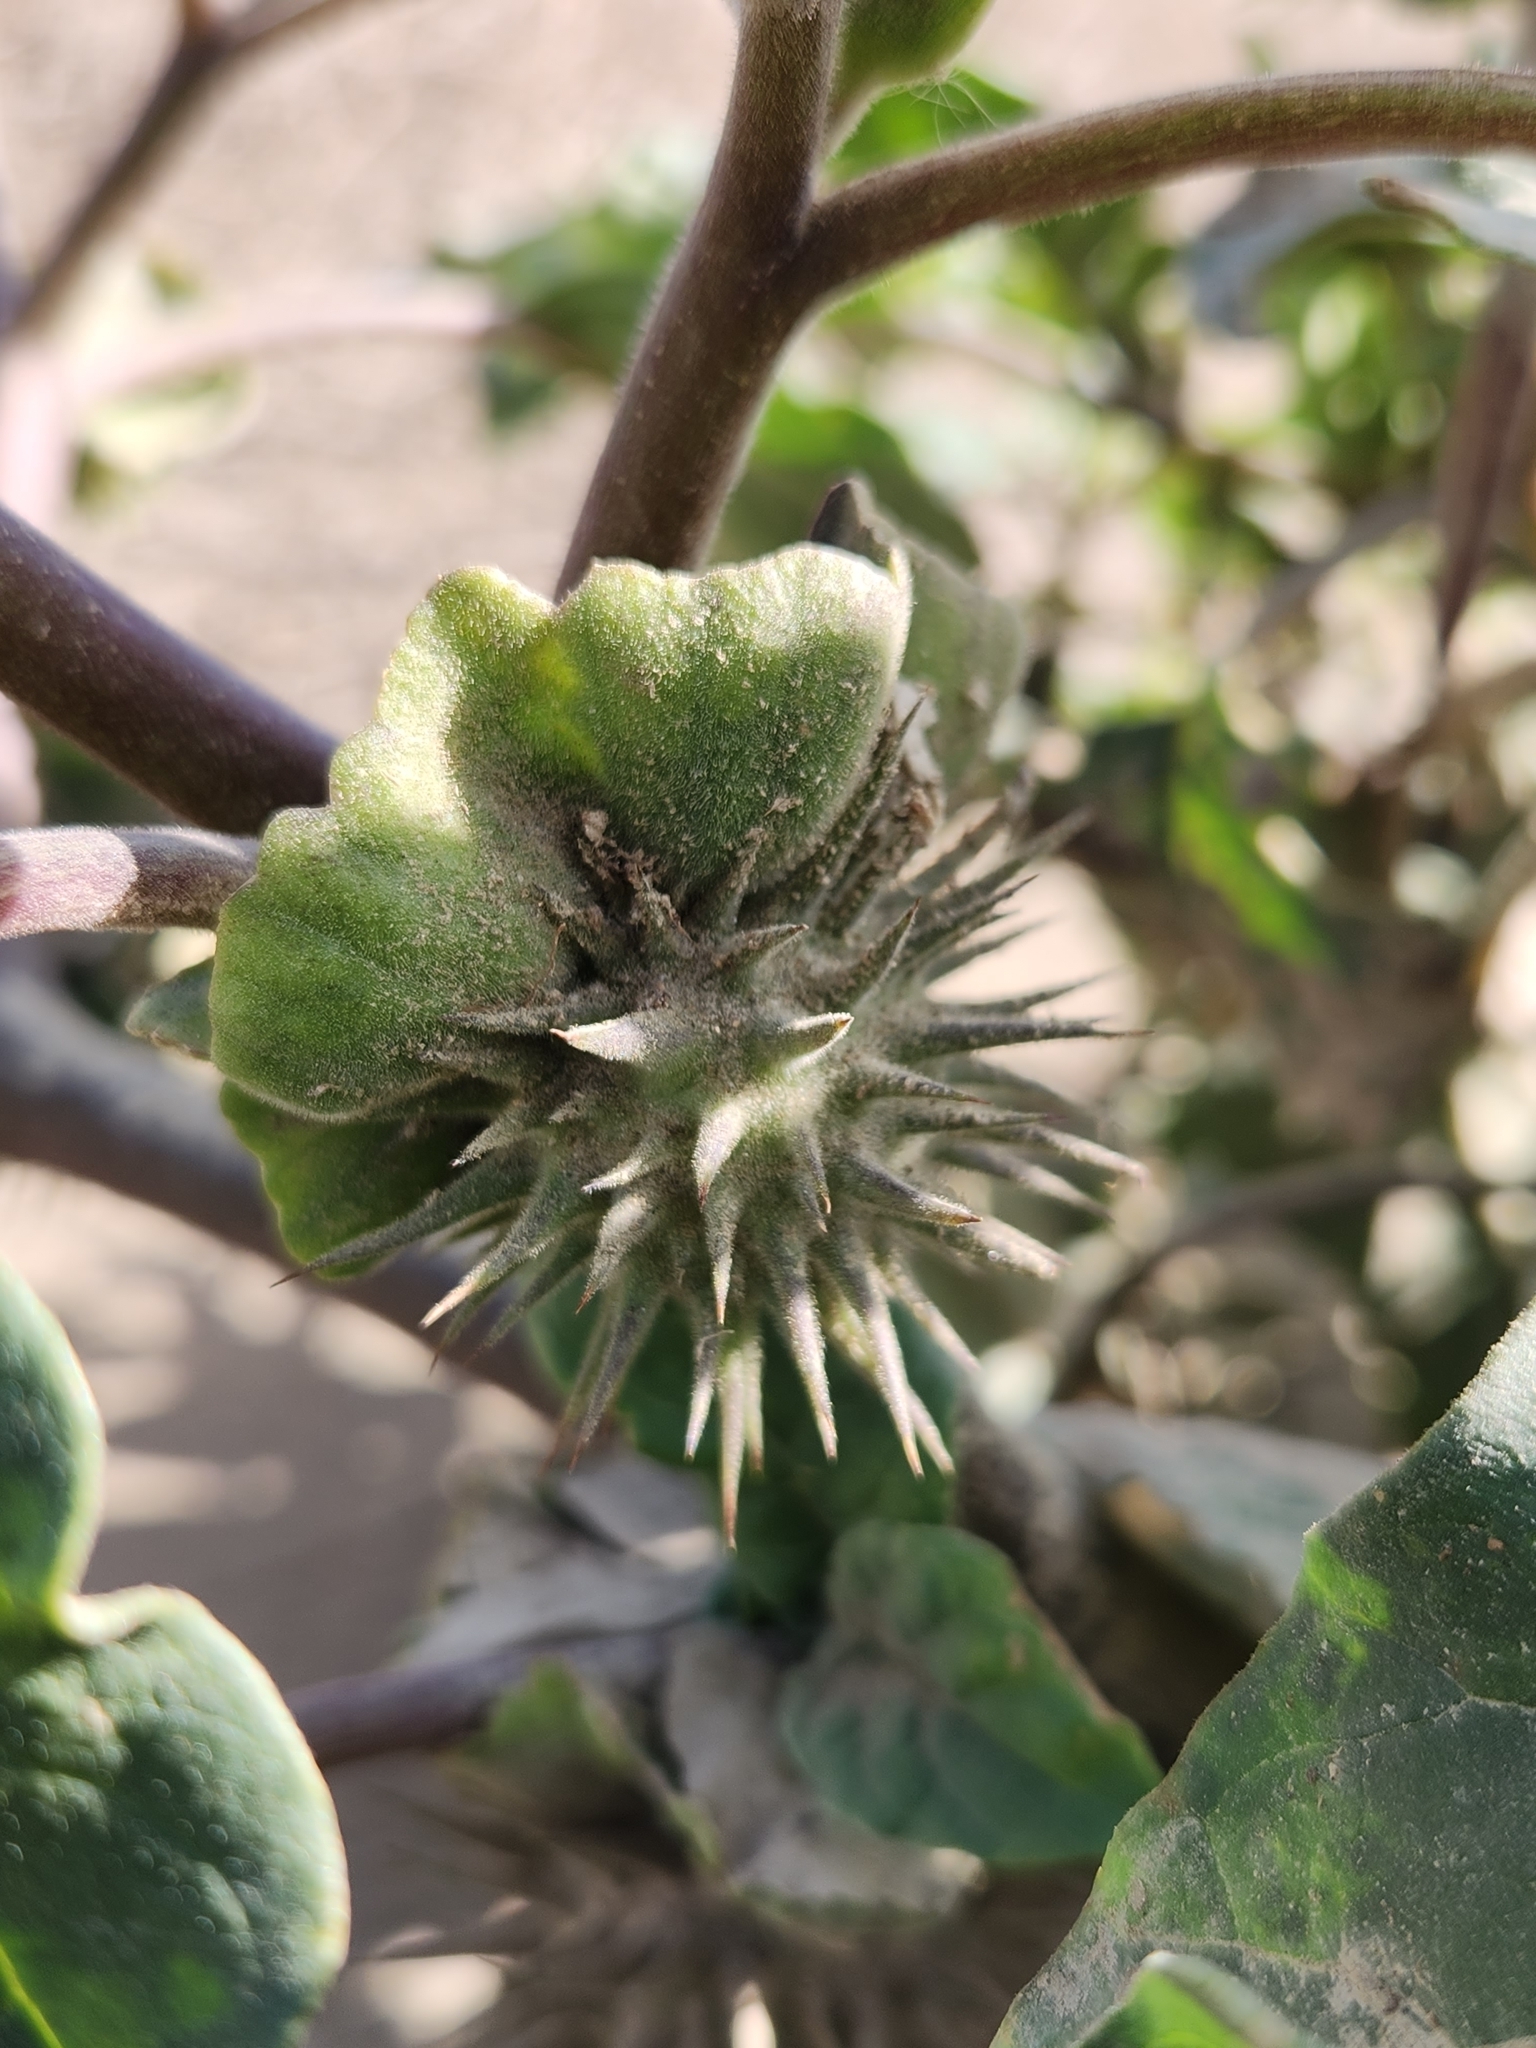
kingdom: Plantae
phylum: Tracheophyta
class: Magnoliopsida
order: Solanales
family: Solanaceae
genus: Datura
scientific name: Datura discolor
